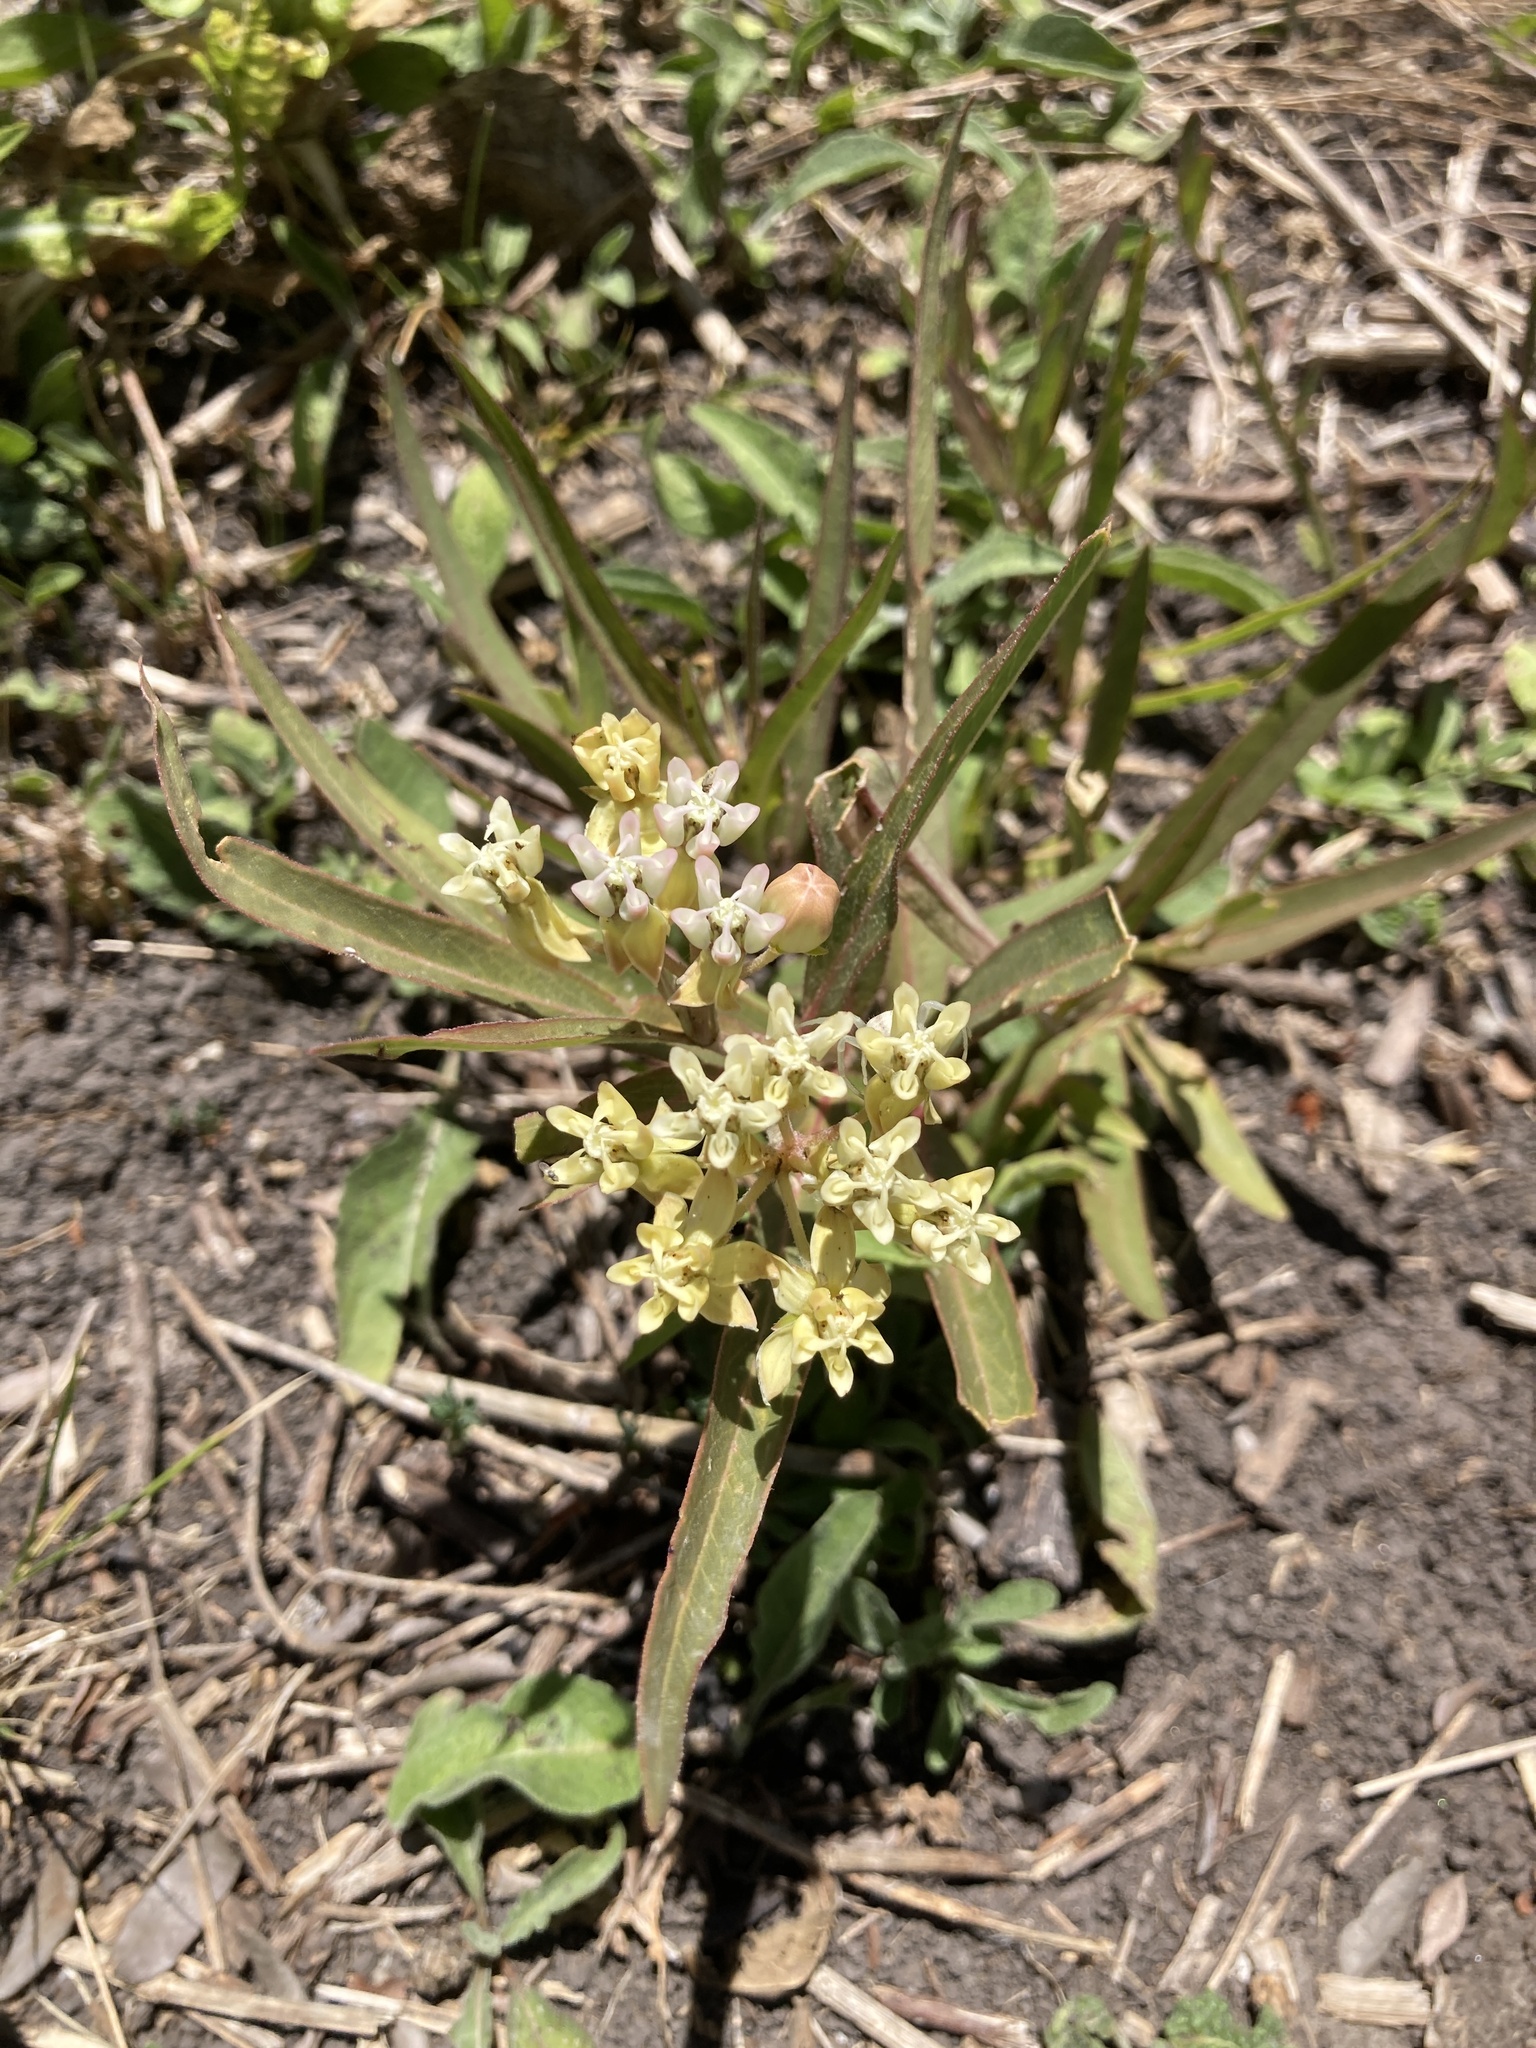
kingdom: Plantae
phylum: Tracheophyta
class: Magnoliopsida
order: Gentianales
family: Apocynaceae
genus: Asclepias
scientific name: Asclepias mellodora
